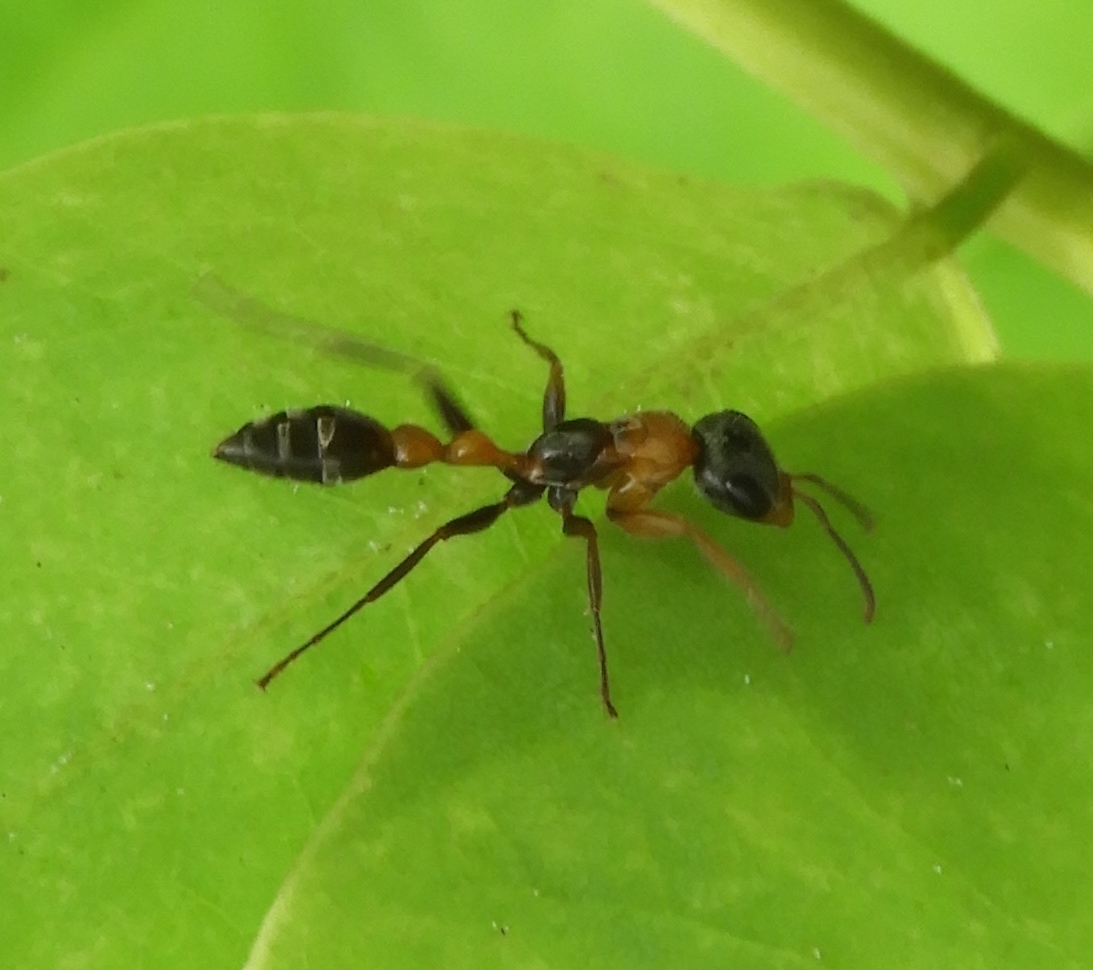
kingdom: Animalia
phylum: Arthropoda
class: Insecta
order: Hymenoptera
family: Formicidae
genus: Pseudomyrmex
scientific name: Pseudomyrmex gracilis
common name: Graceful twig ant
